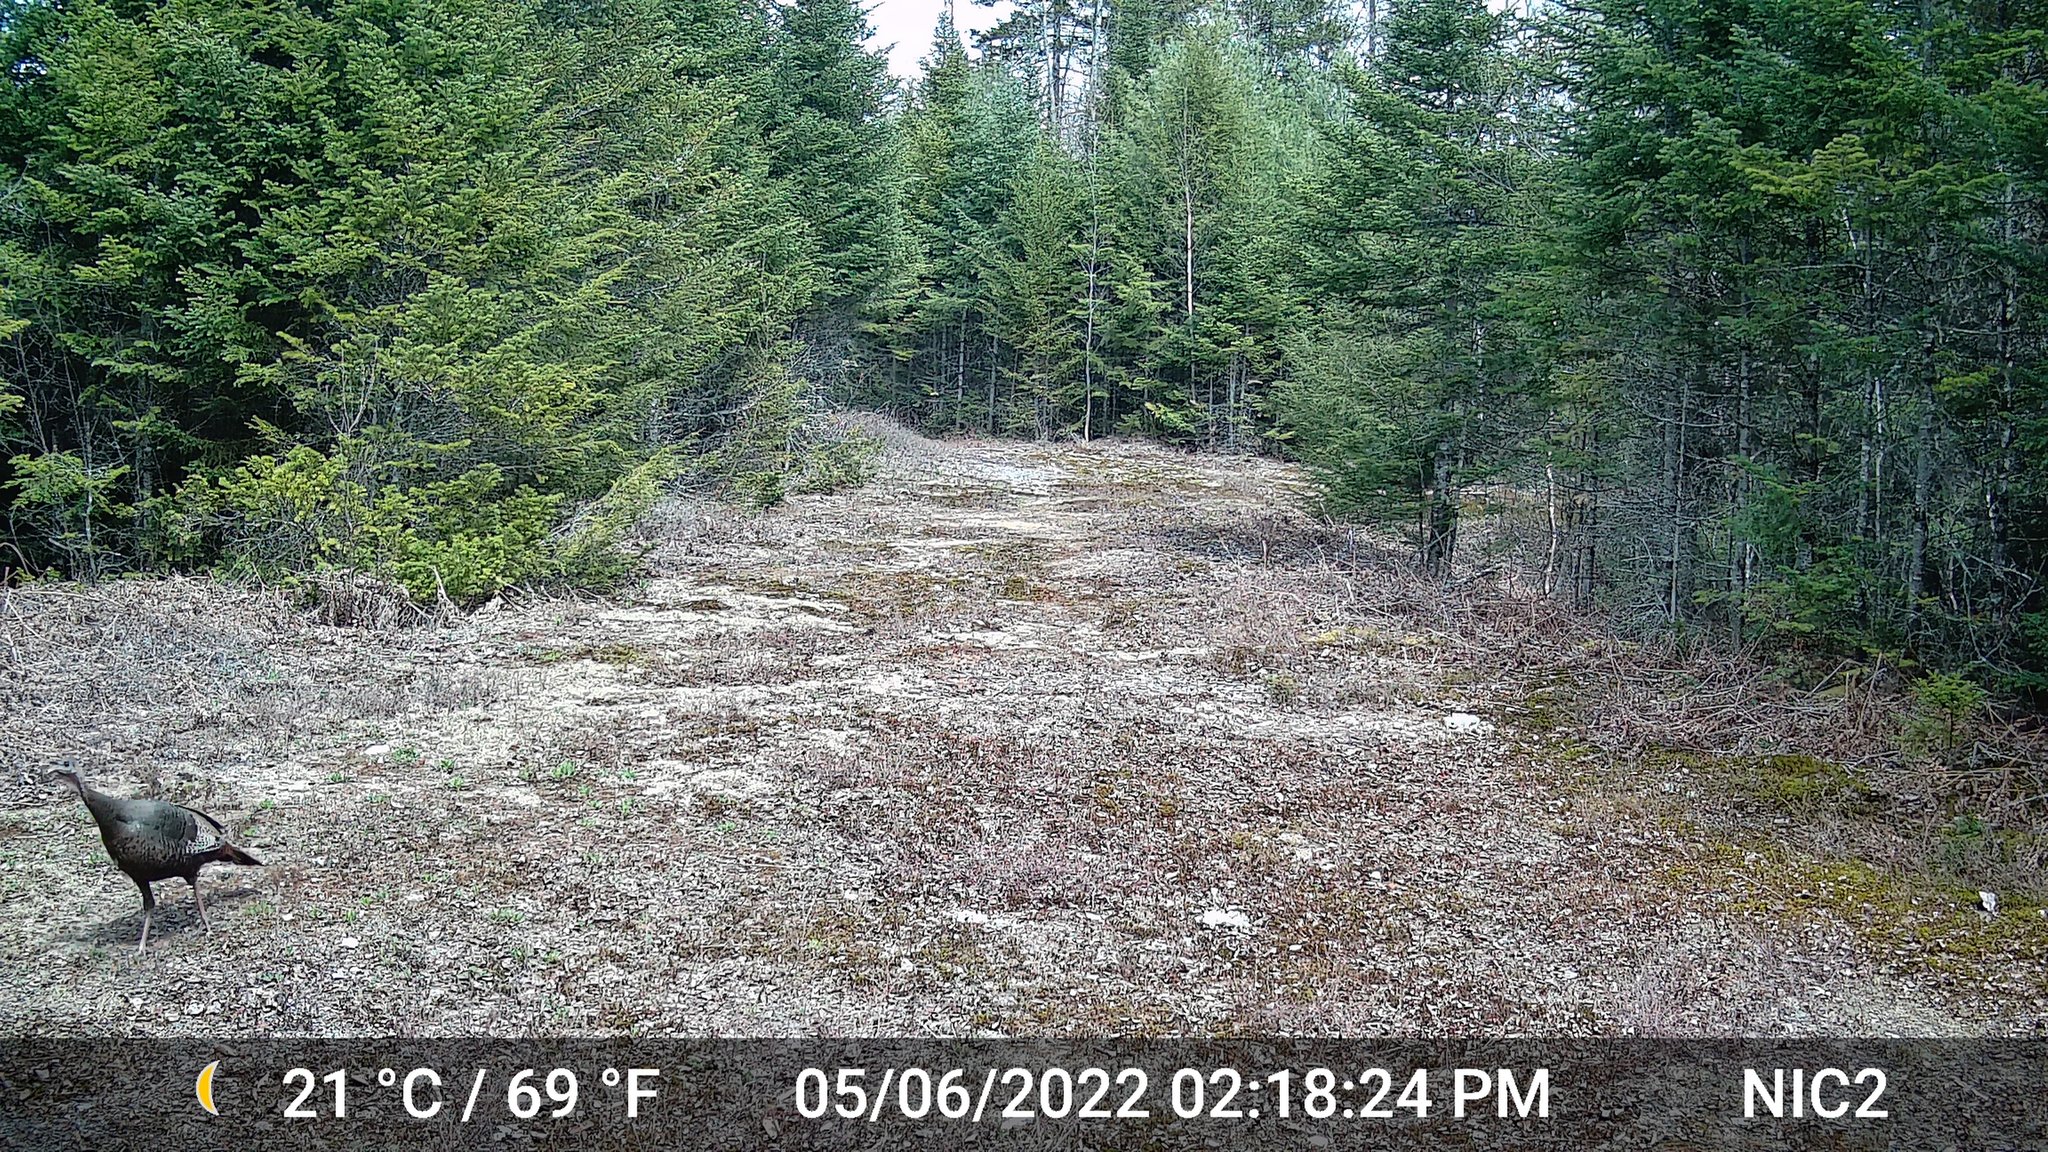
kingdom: Animalia
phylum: Chordata
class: Aves
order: Galliformes
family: Phasianidae
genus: Meleagris
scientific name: Meleagris gallopavo
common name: Wild turkey
